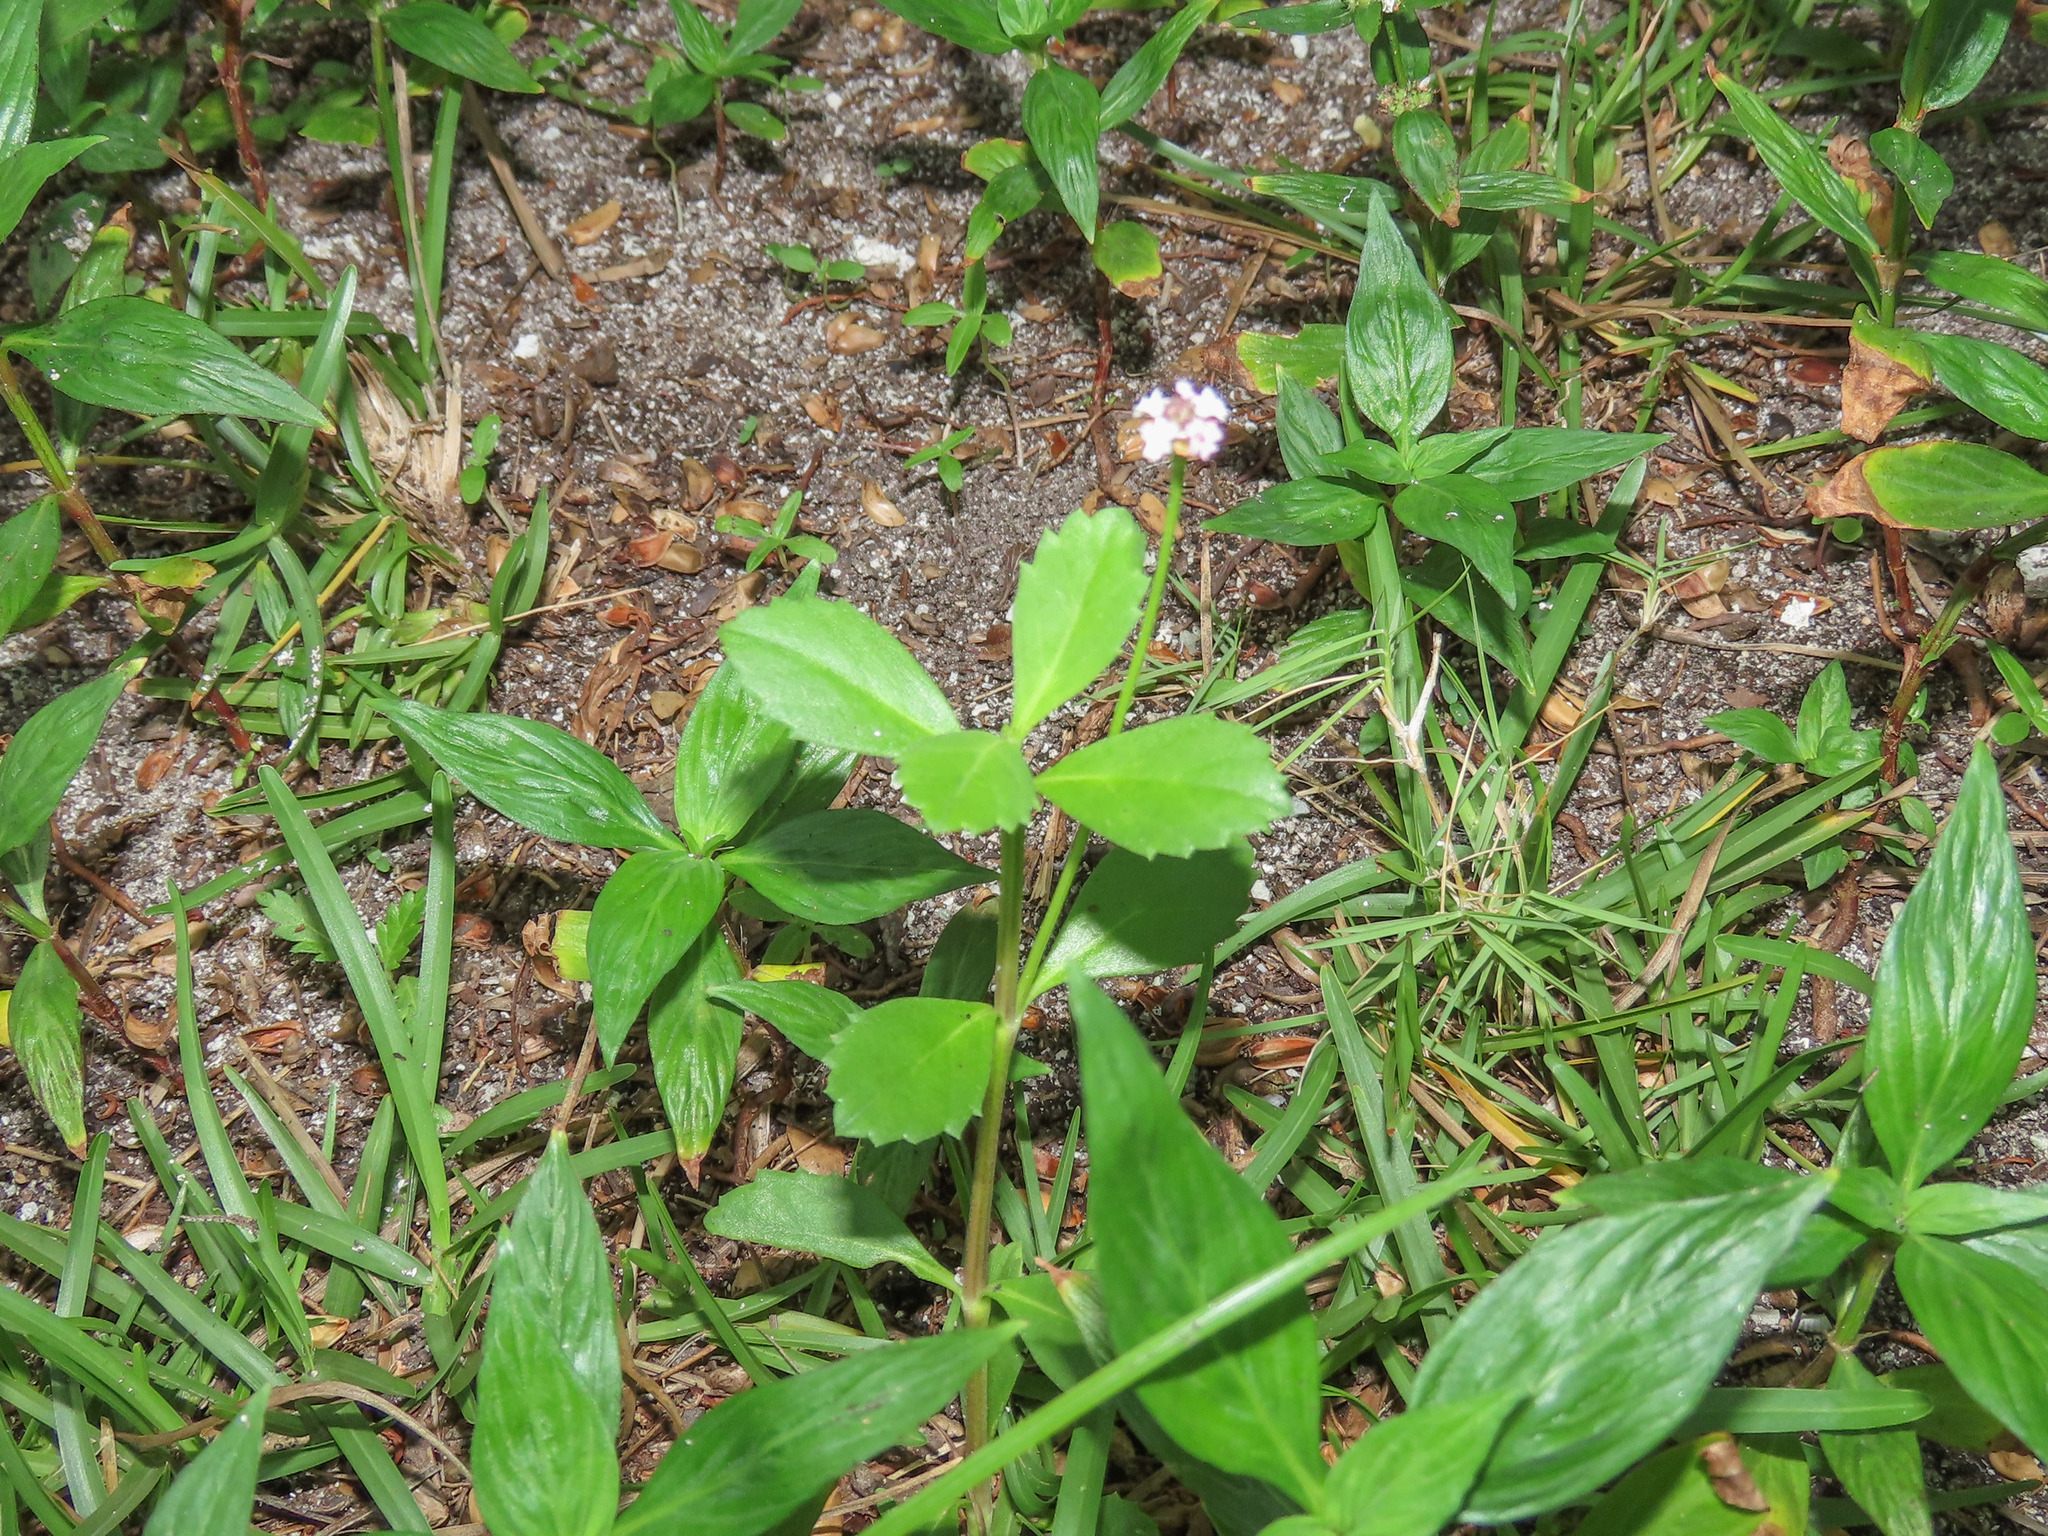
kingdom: Plantae
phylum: Tracheophyta
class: Magnoliopsida
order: Lamiales
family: Verbenaceae
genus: Phyla
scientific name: Phyla nodiflora
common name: Frogfruit
